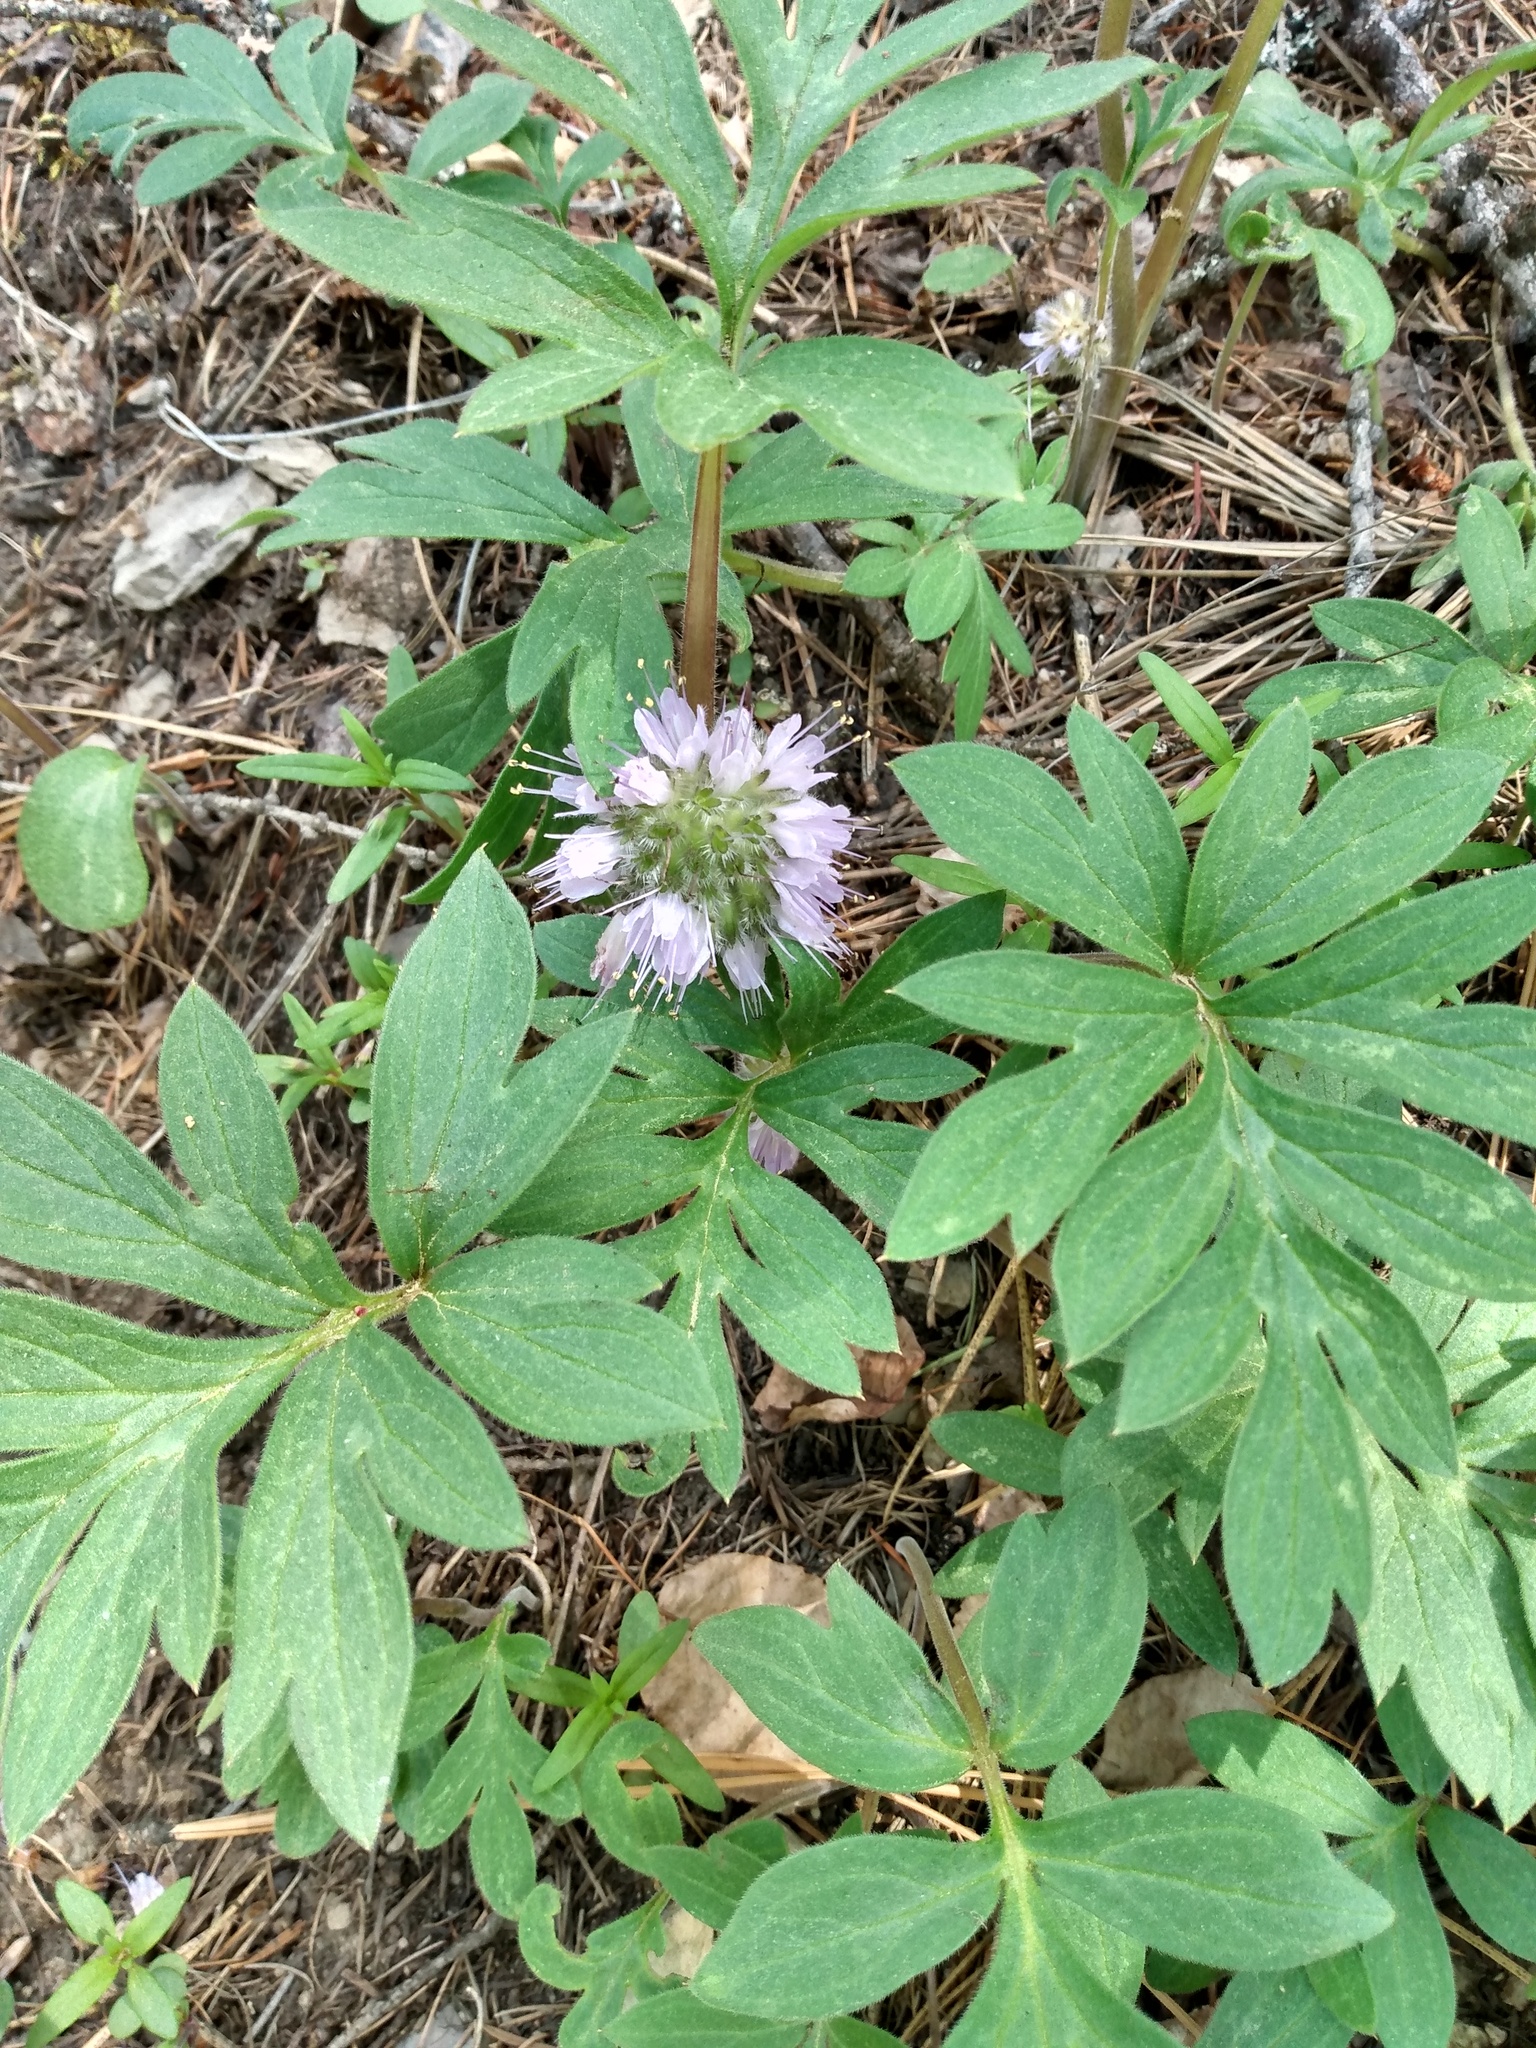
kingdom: Plantae
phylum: Tracheophyta
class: Magnoliopsida
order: Boraginales
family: Hydrophyllaceae
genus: Hydrophyllum
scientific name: Hydrophyllum capitatum
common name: Woollen-breeches
